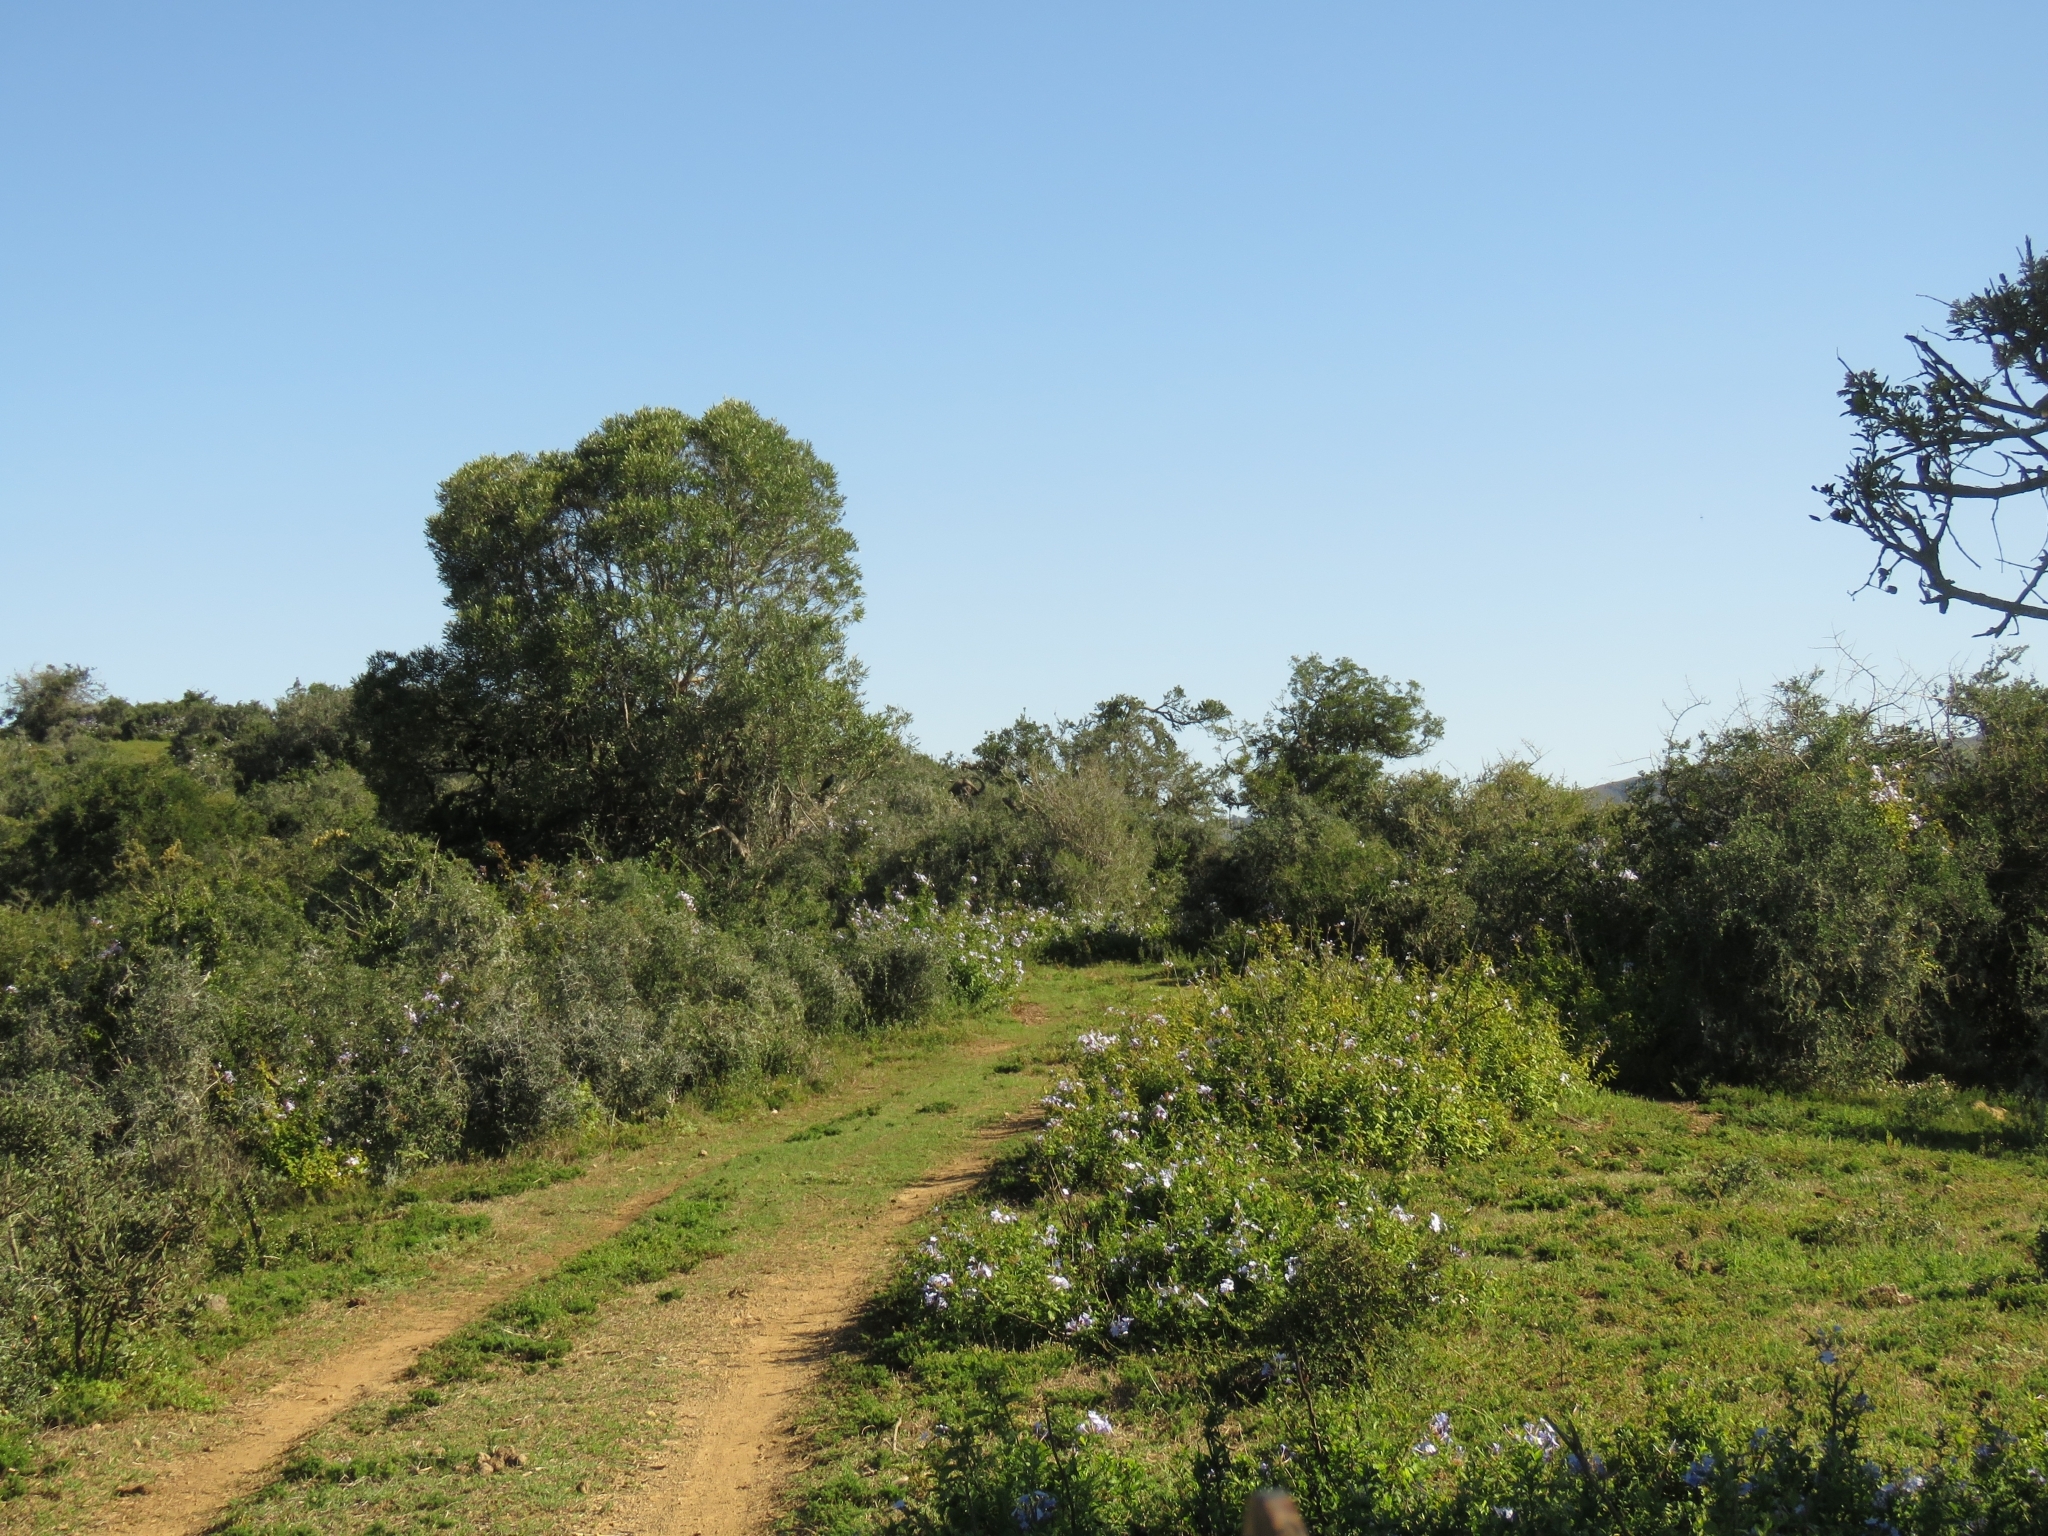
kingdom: Plantae
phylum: Tracheophyta
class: Magnoliopsida
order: Caryophyllales
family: Plumbaginaceae
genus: Plumbago
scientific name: Plumbago auriculata
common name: Cape leadwort
